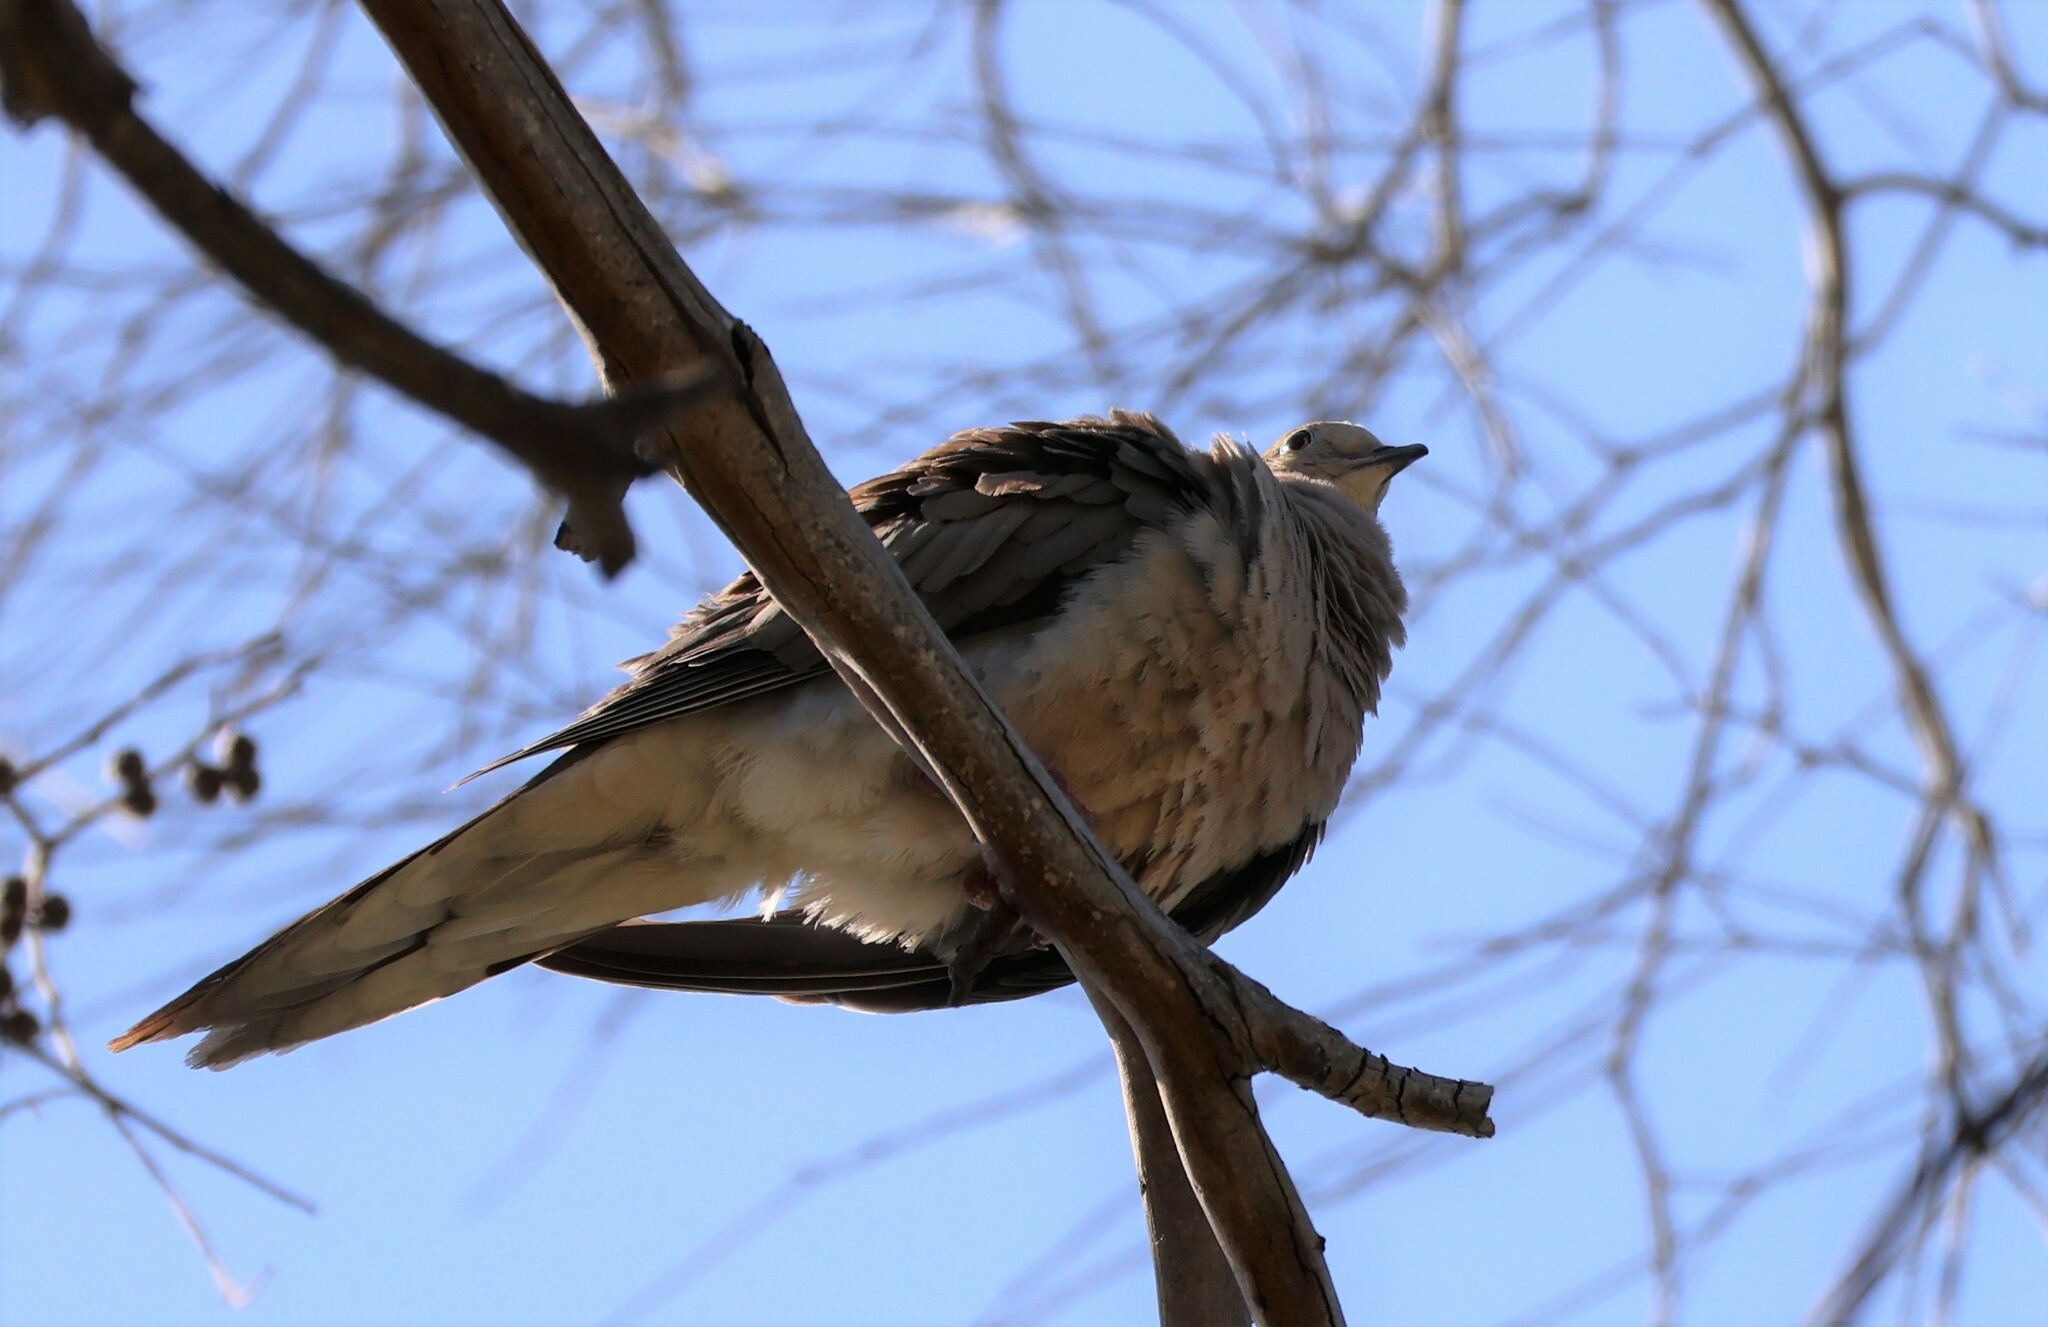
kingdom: Animalia
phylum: Chordata
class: Aves
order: Columbiformes
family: Columbidae
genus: Zenaida
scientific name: Zenaida macroura
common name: Mourning dove
